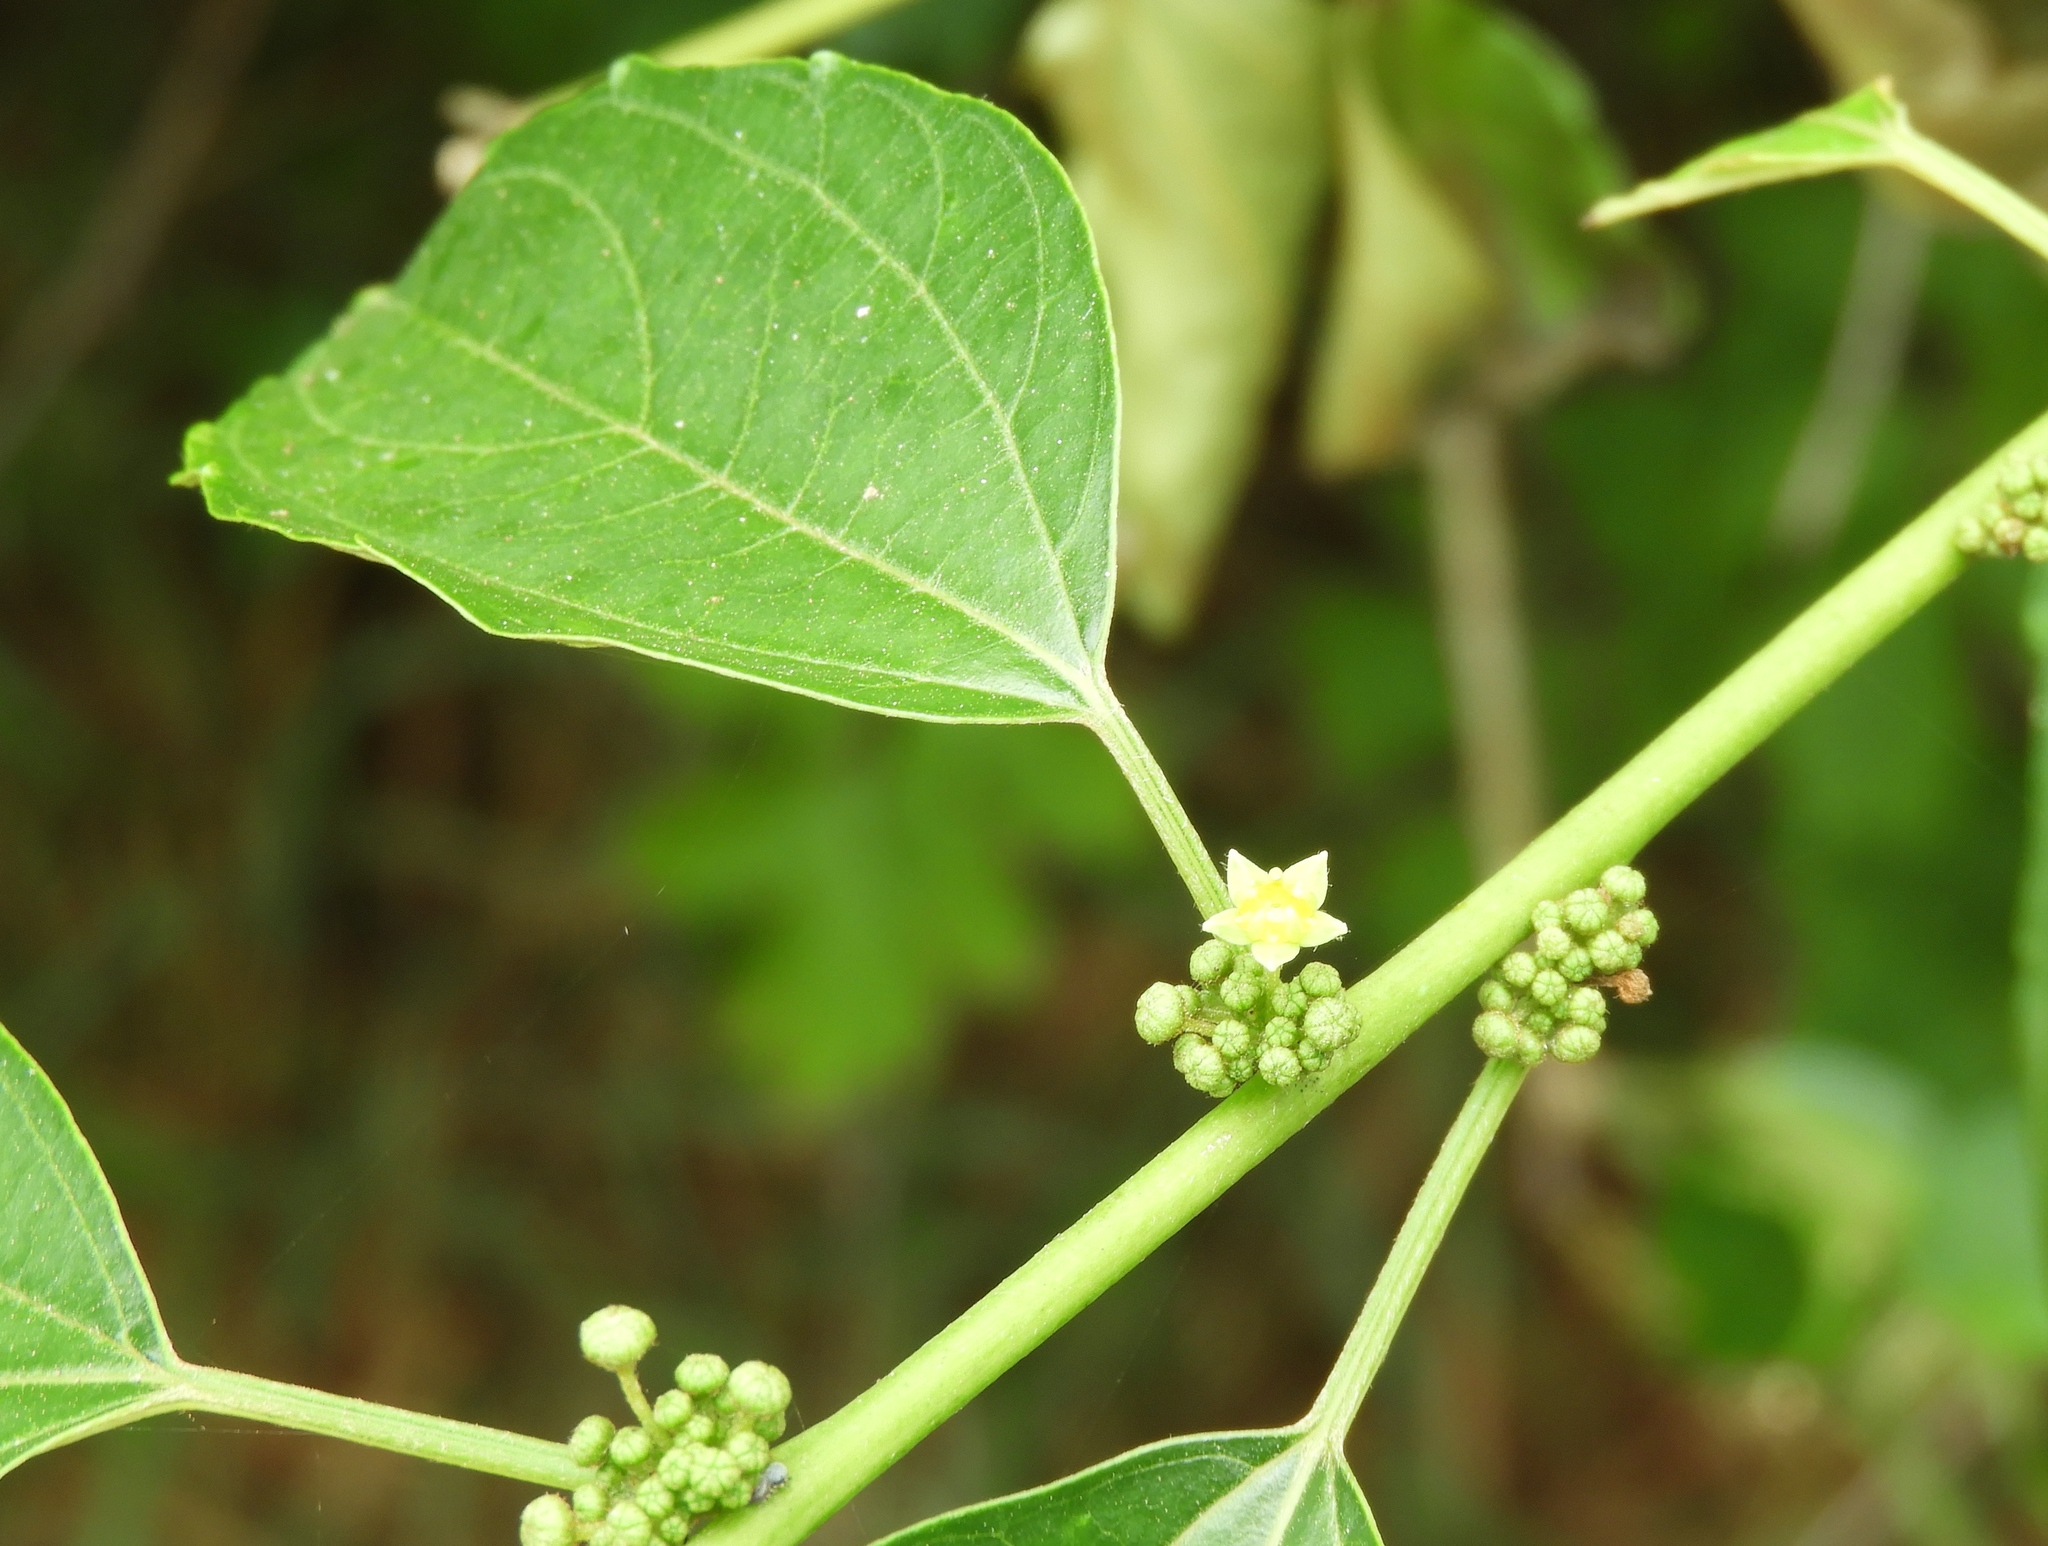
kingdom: Plantae
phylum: Tracheophyta
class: Magnoliopsida
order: Rosales
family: Rhamnaceae
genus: Colubrina
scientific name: Colubrina triflora
